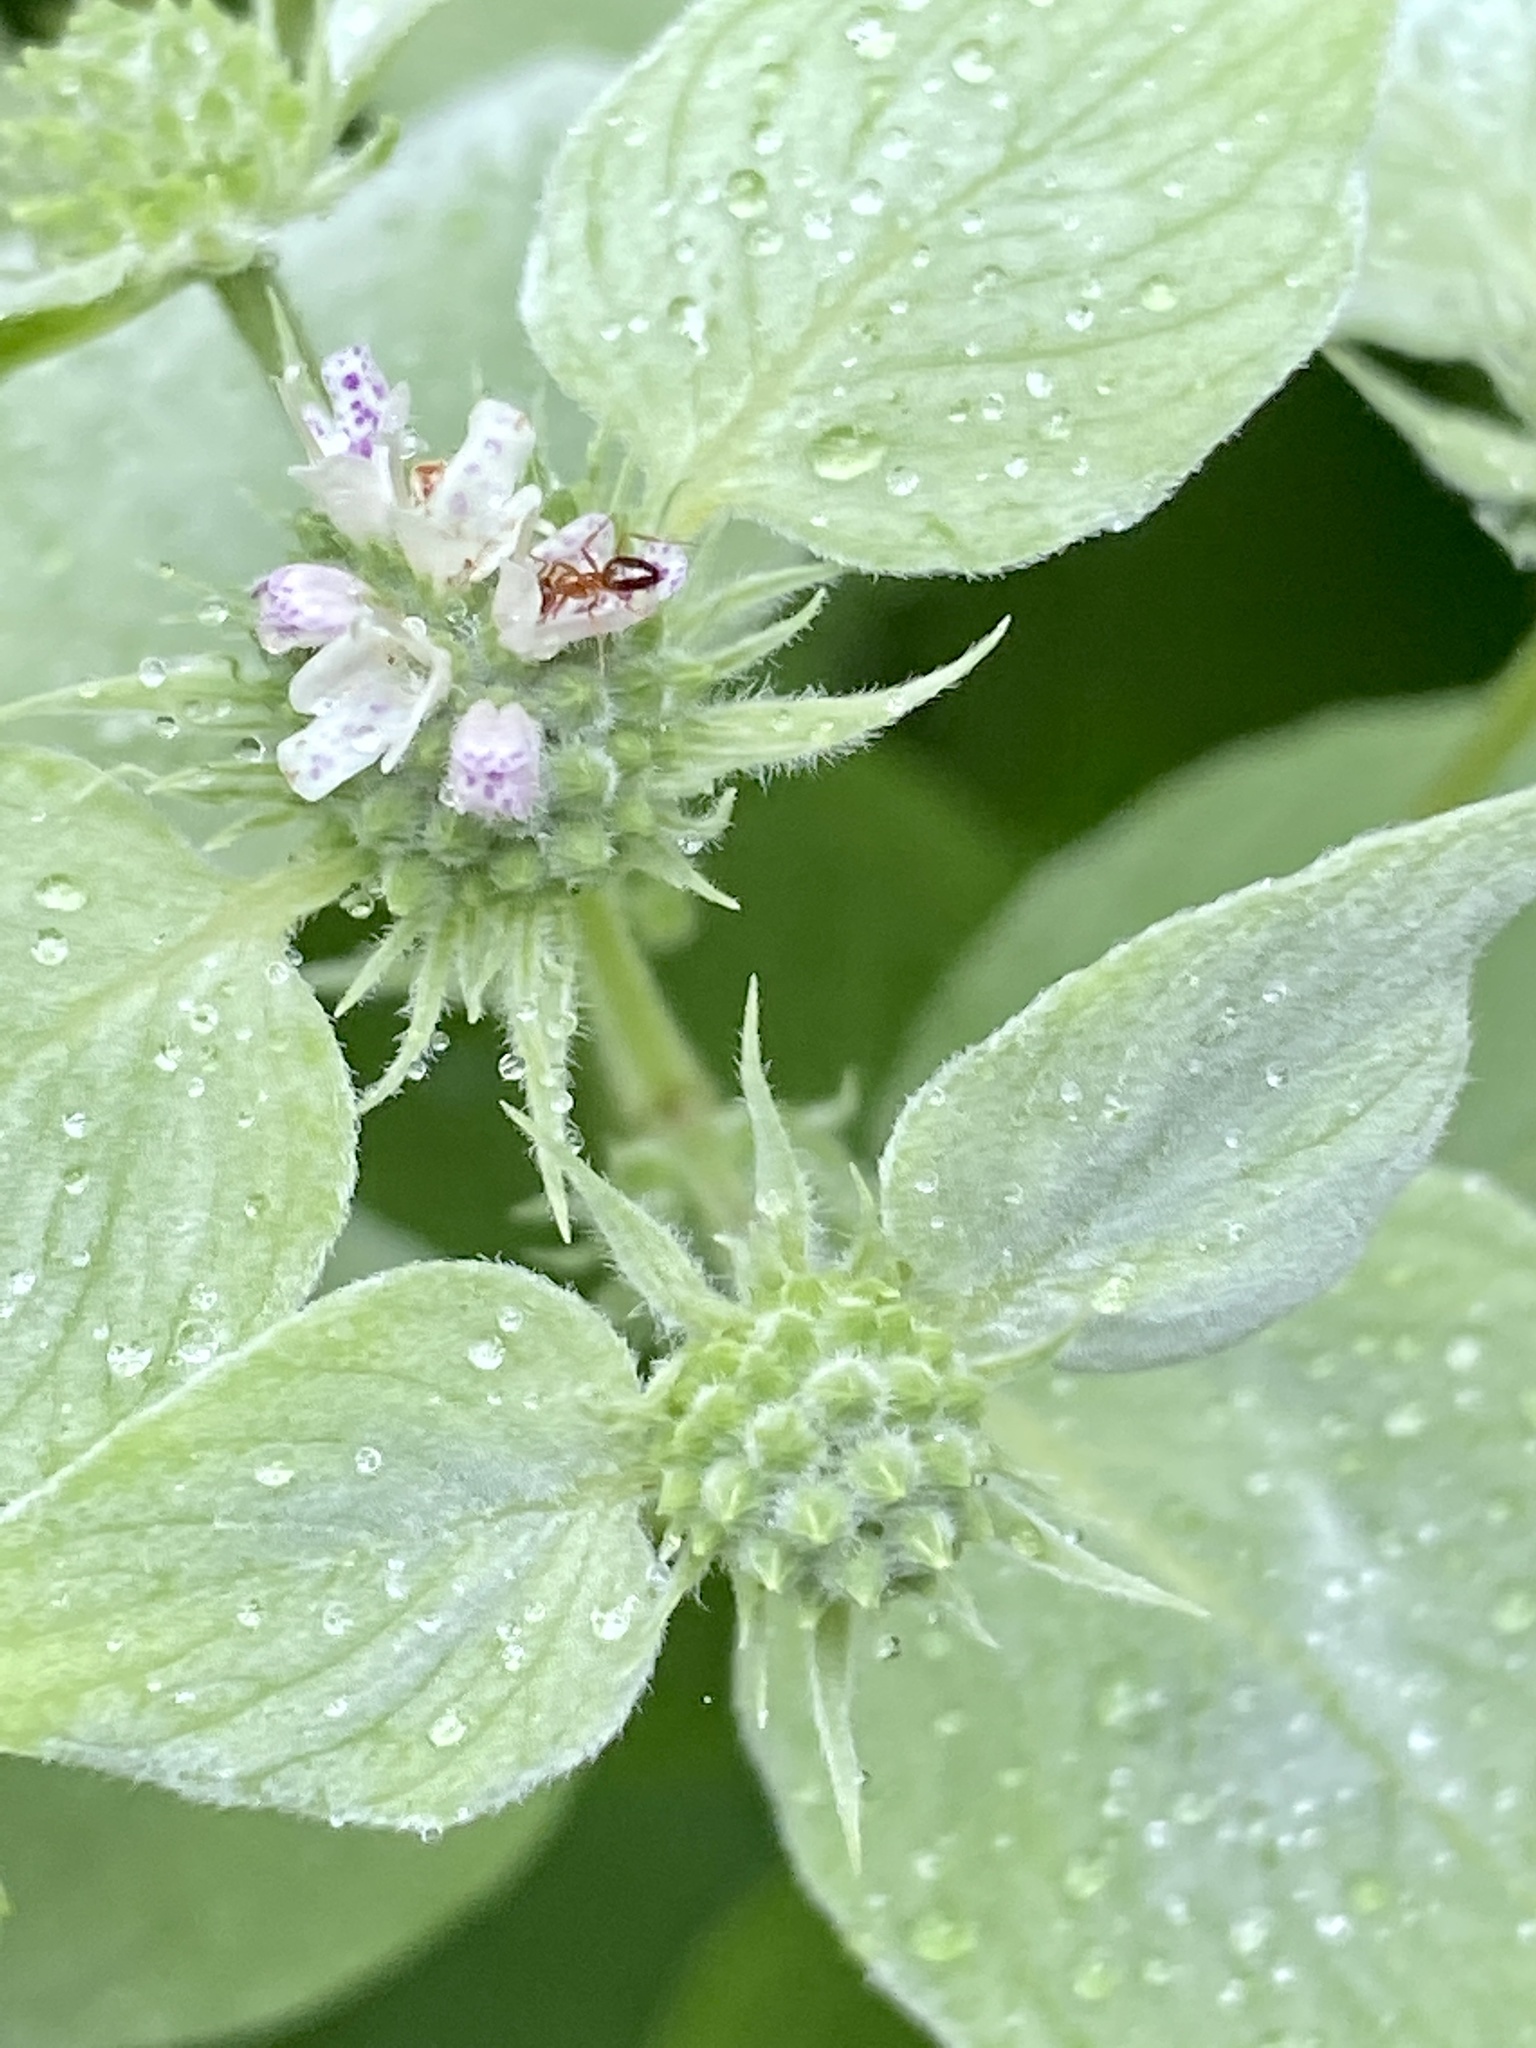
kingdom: Plantae
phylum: Tracheophyta
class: Magnoliopsida
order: Lamiales
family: Lamiaceae
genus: Pycnanthemum
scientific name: Pycnanthemum muticum
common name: Blunt mountain-mint
